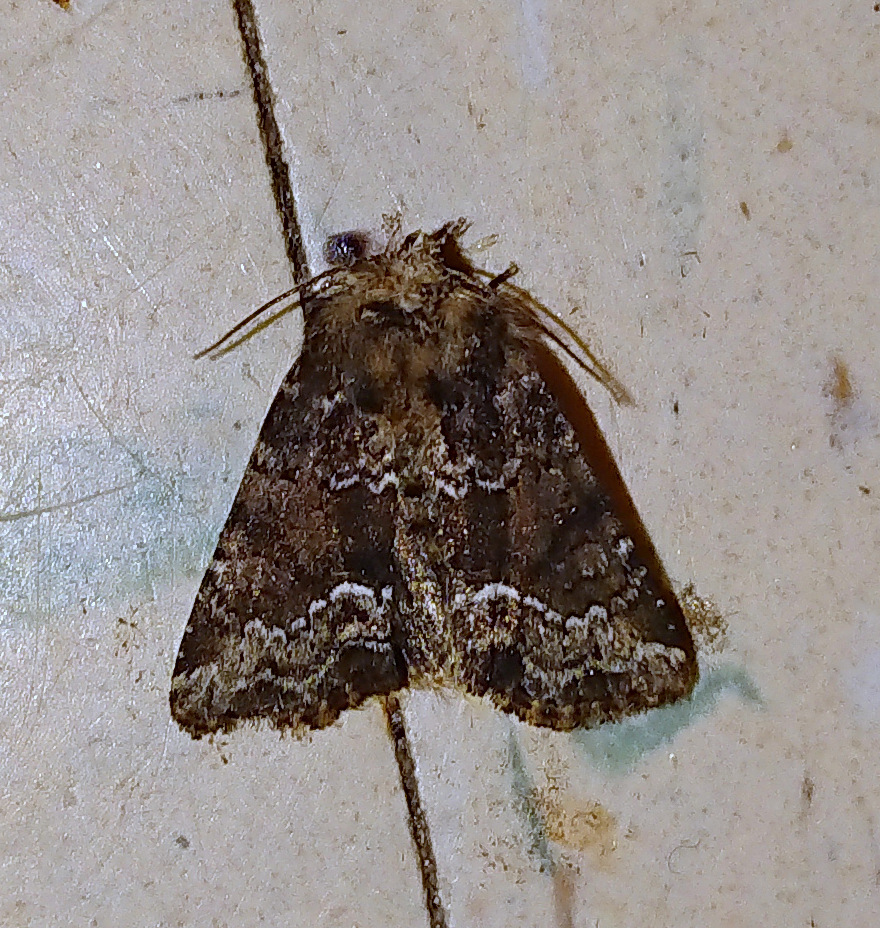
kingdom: Animalia
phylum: Arthropoda
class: Insecta
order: Lepidoptera
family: Noctuidae
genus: Oligia
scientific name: Oligia strigilis
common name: Marbled minor
